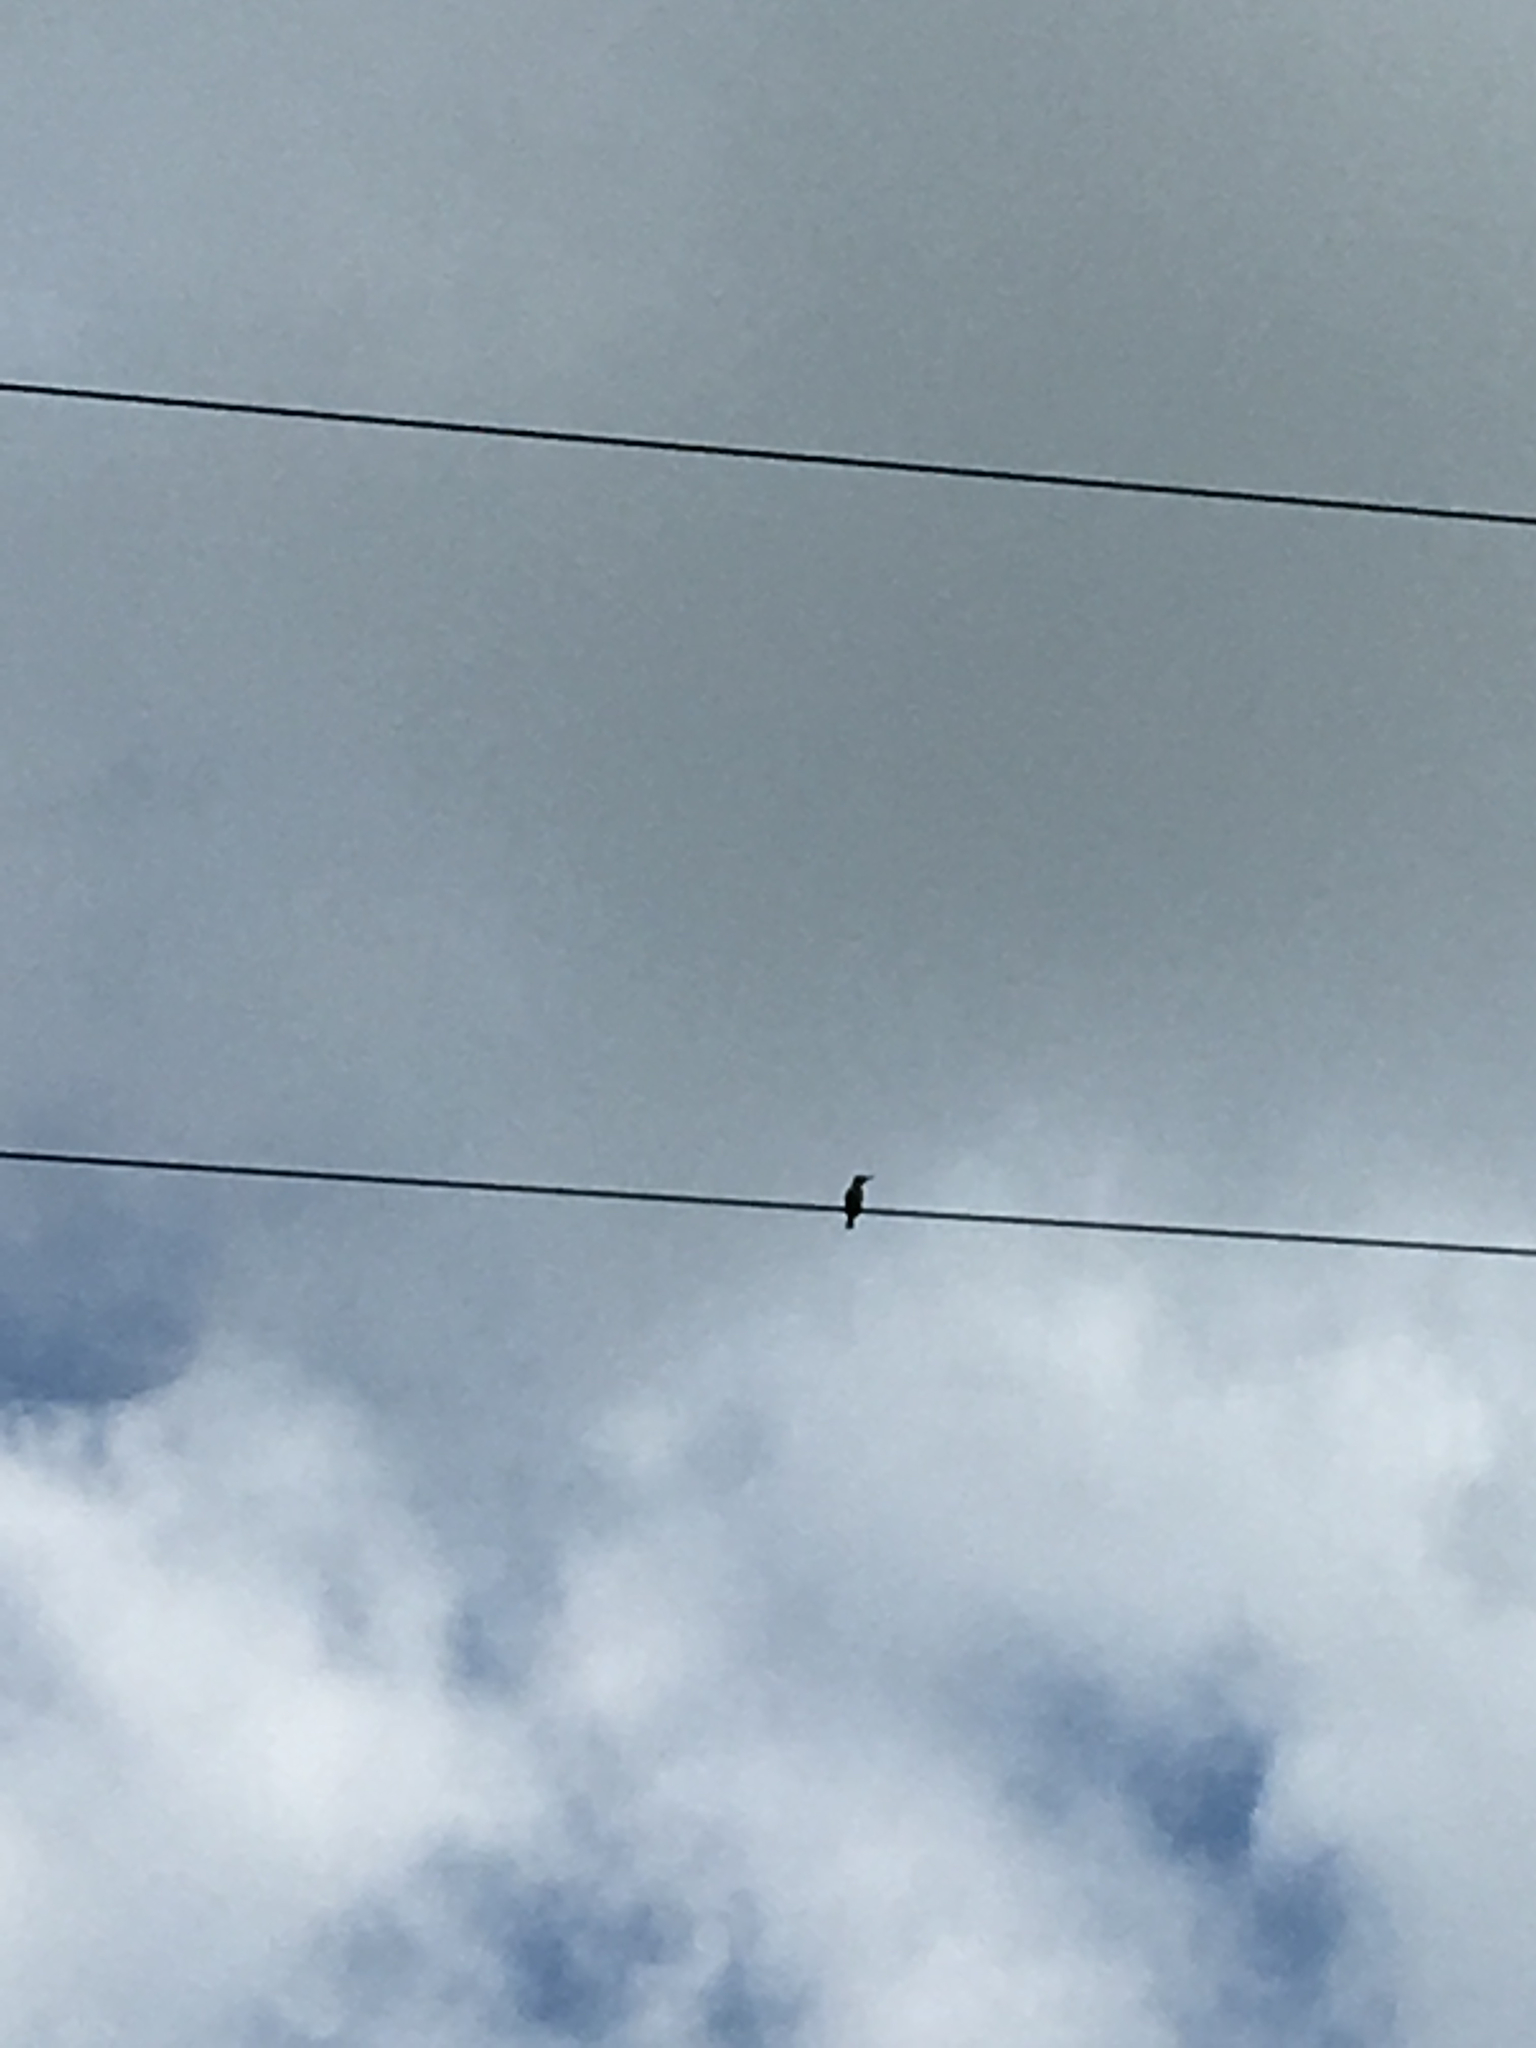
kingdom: Animalia
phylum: Chordata
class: Aves
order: Coraciiformes
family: Alcedinidae
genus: Todiramphus
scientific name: Todiramphus sanctus
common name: Sacred kingfisher
